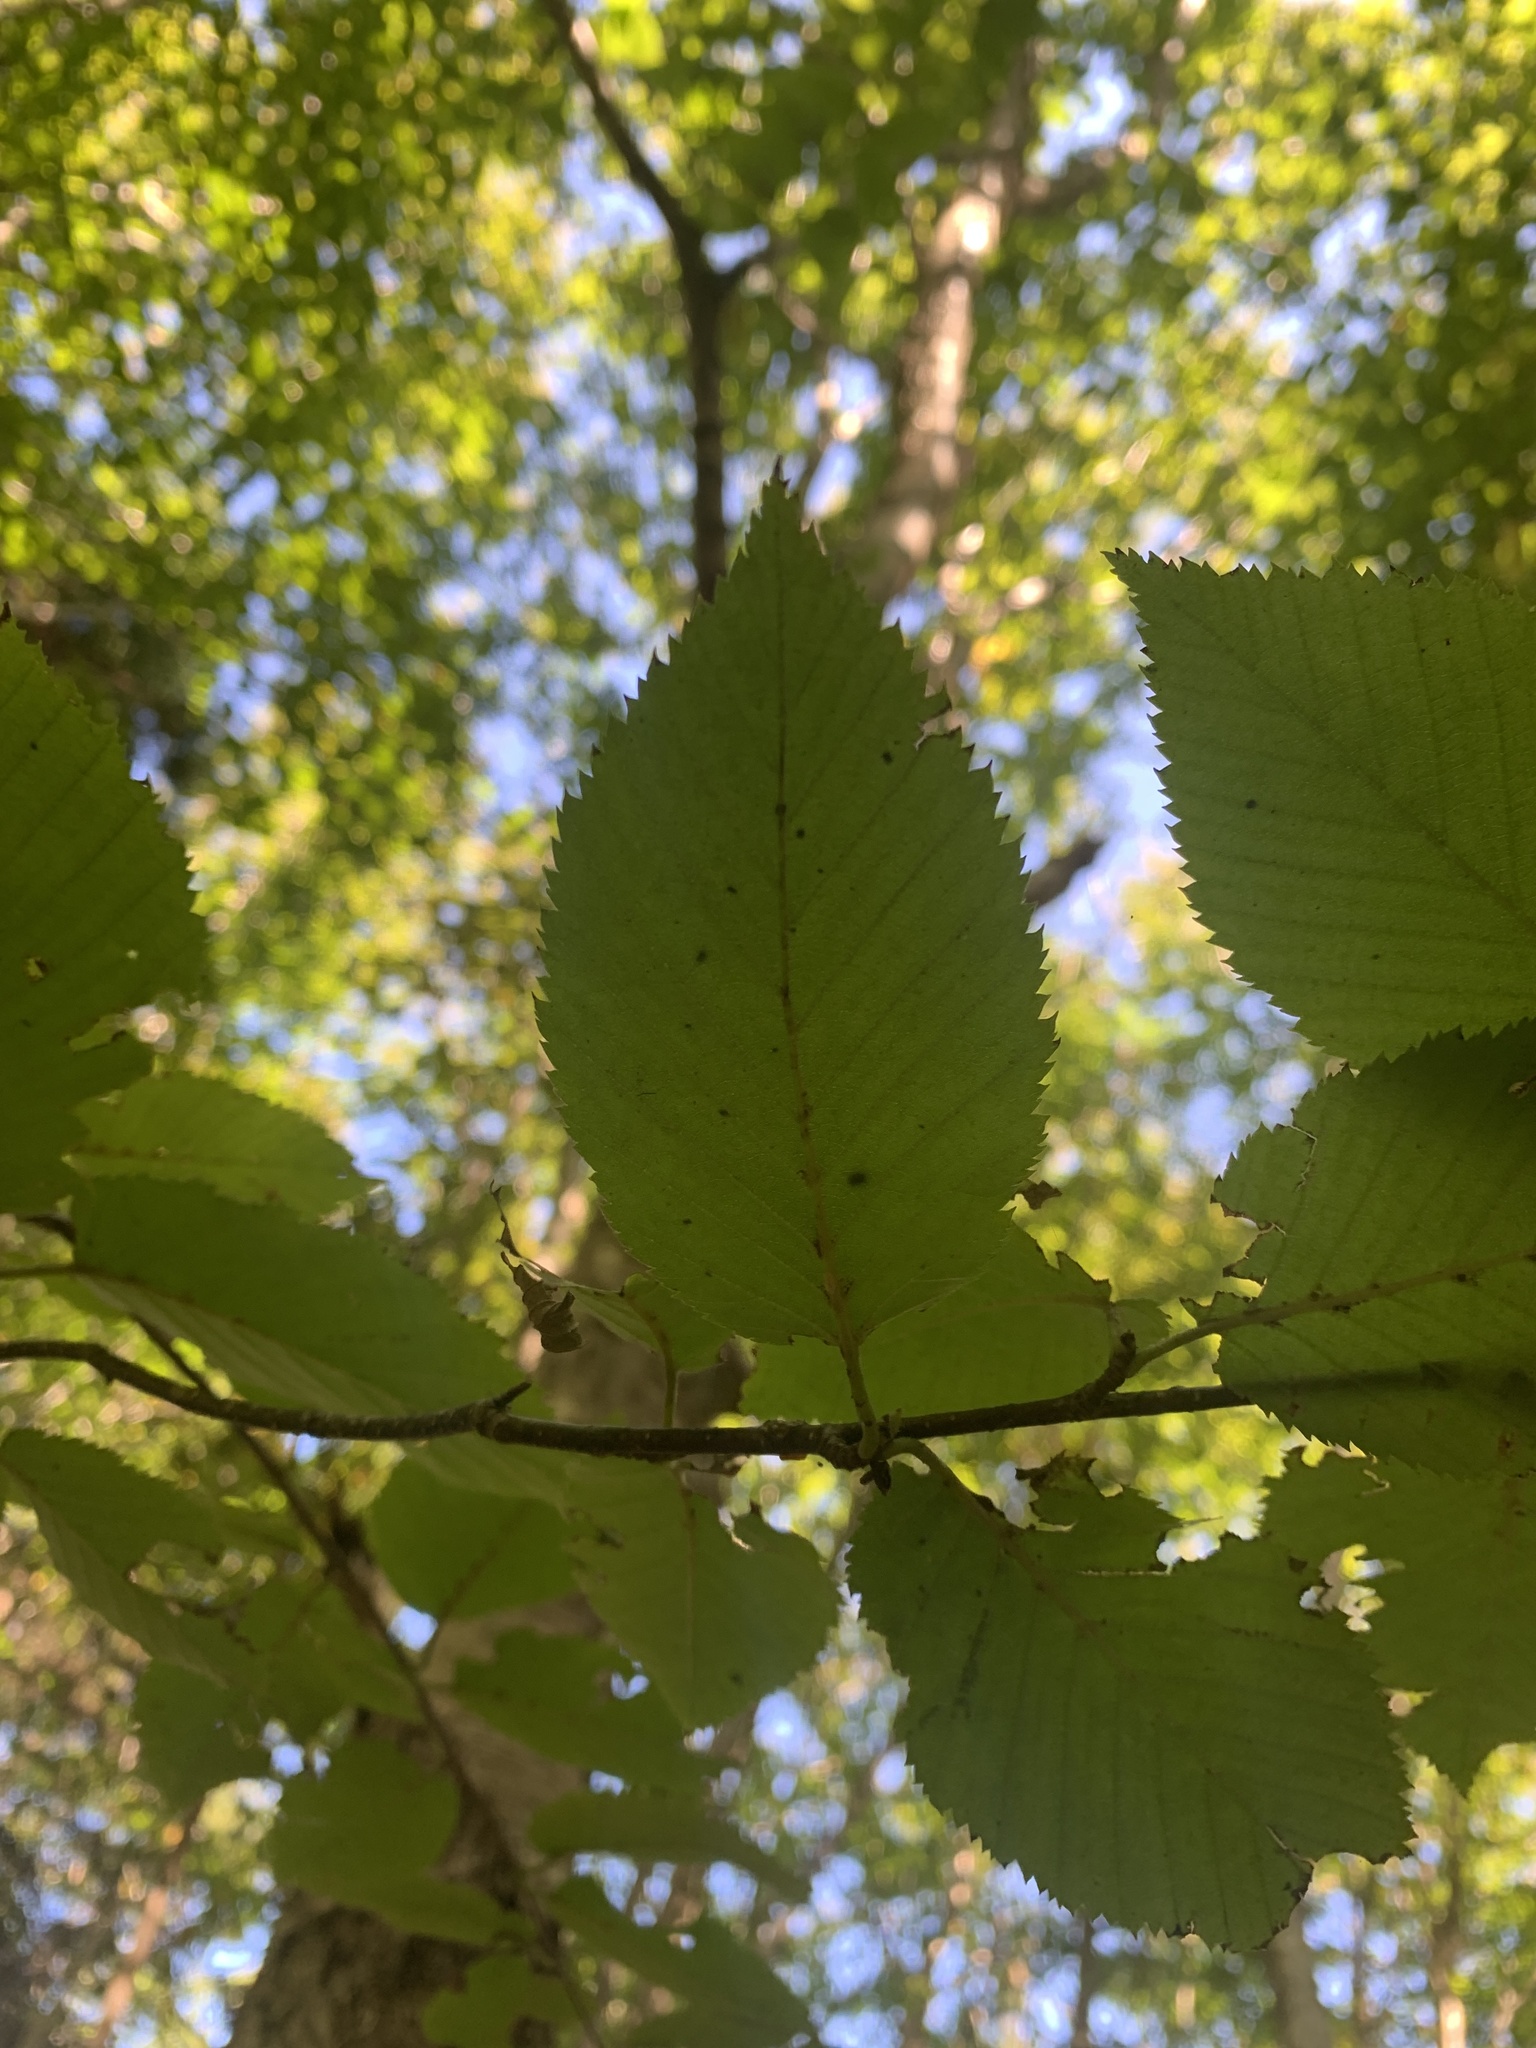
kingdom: Plantae
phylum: Tracheophyta
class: Magnoliopsida
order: Fagales
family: Betulaceae
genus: Betula
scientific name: Betula alleghaniensis
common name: Yellow birch
